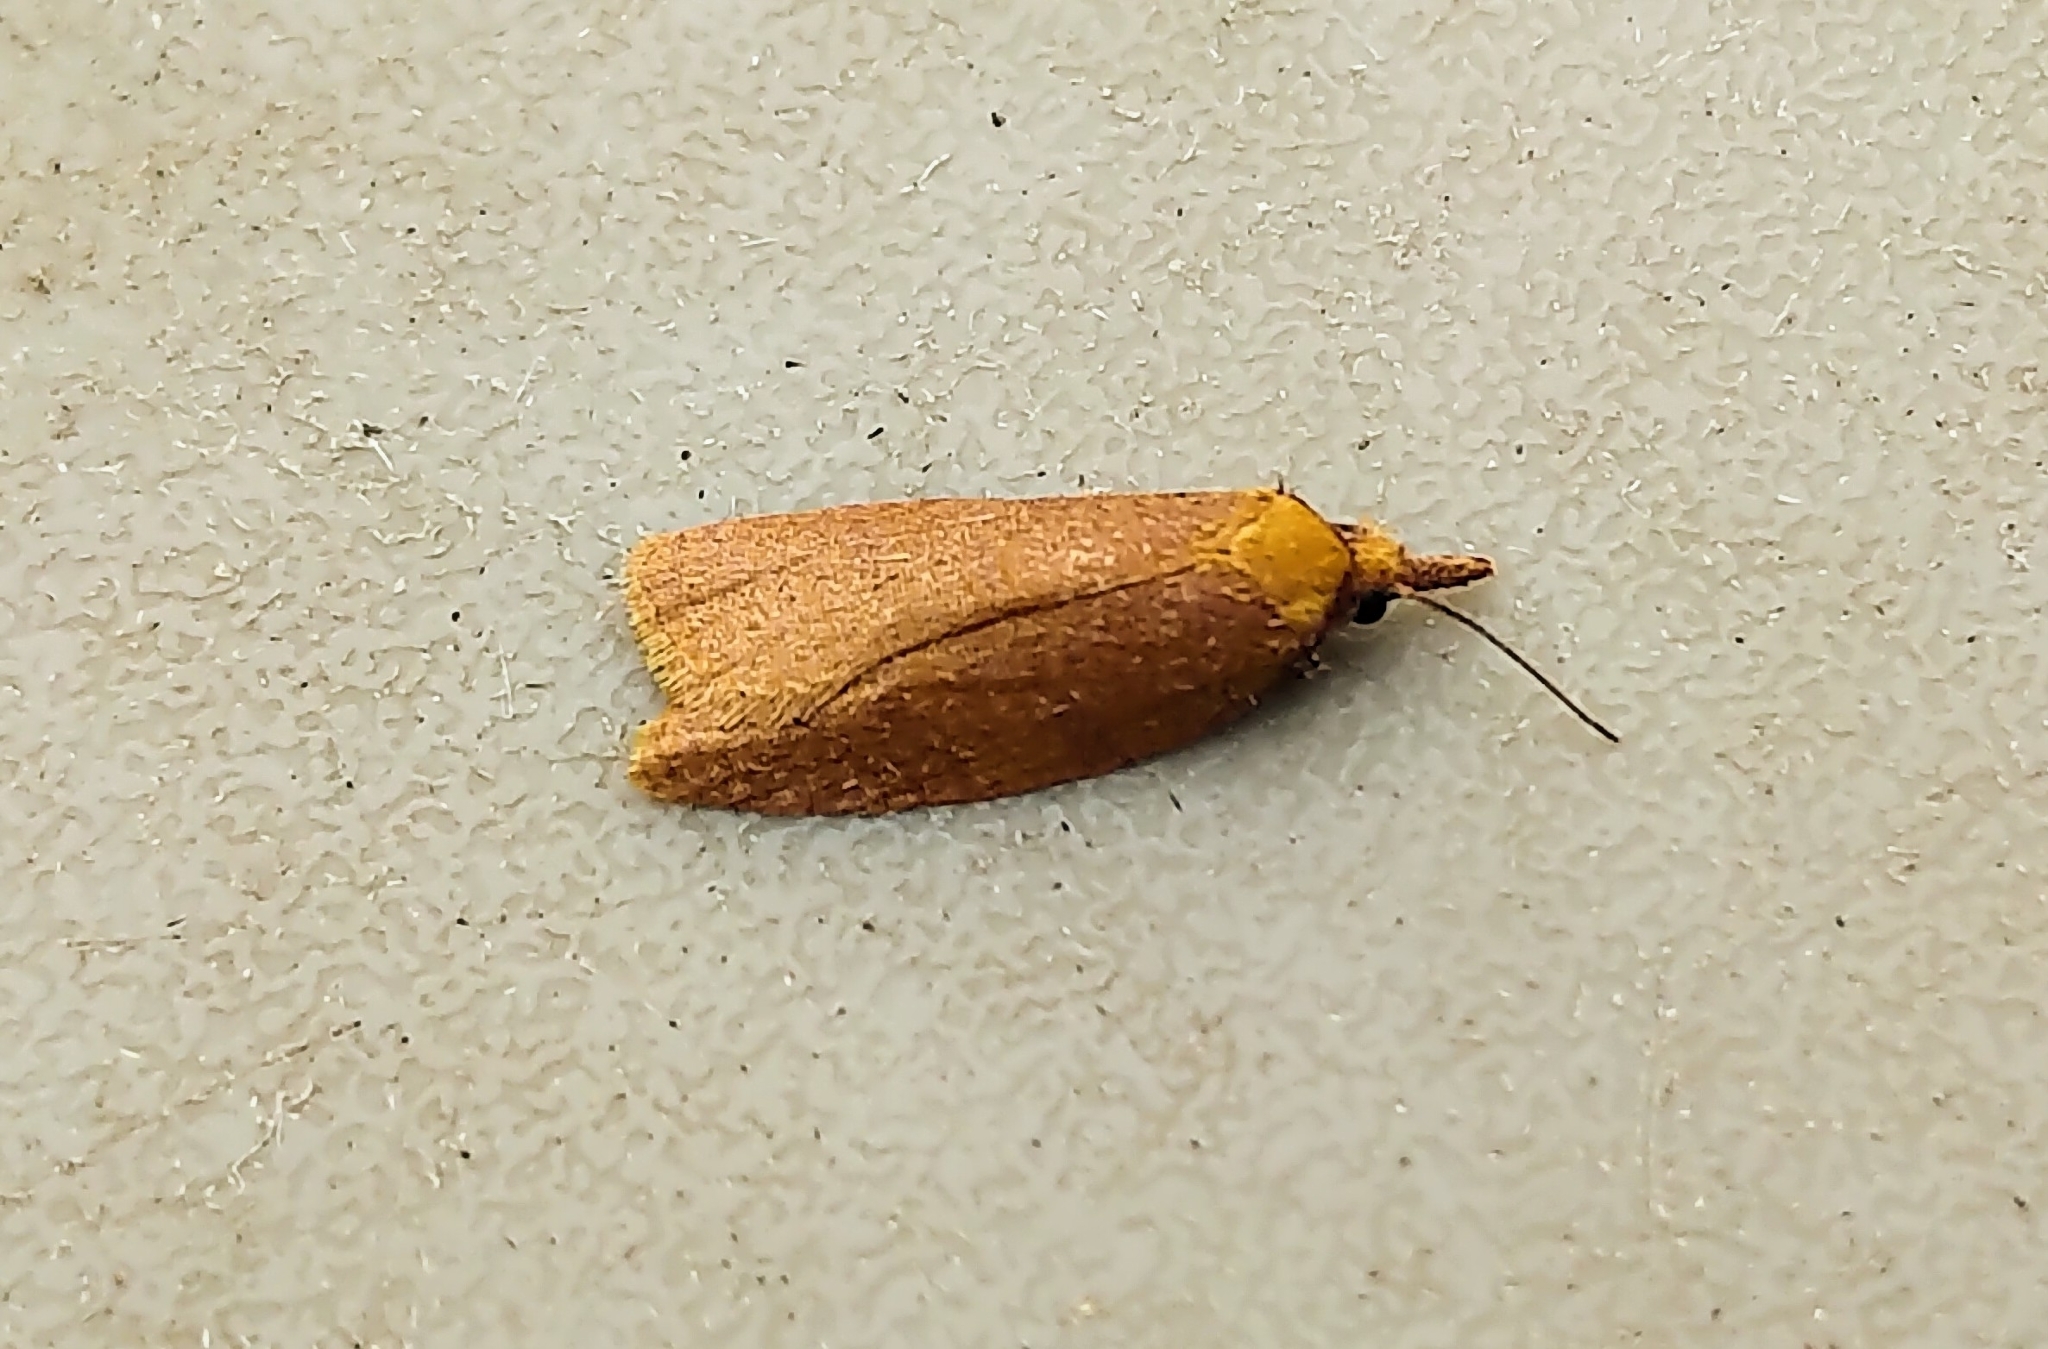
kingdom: Animalia
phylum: Arthropoda
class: Insecta
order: Lepidoptera
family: Tortricidae
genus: Cenopis
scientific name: Cenopis directana
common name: Chokecherry leafroller moth
